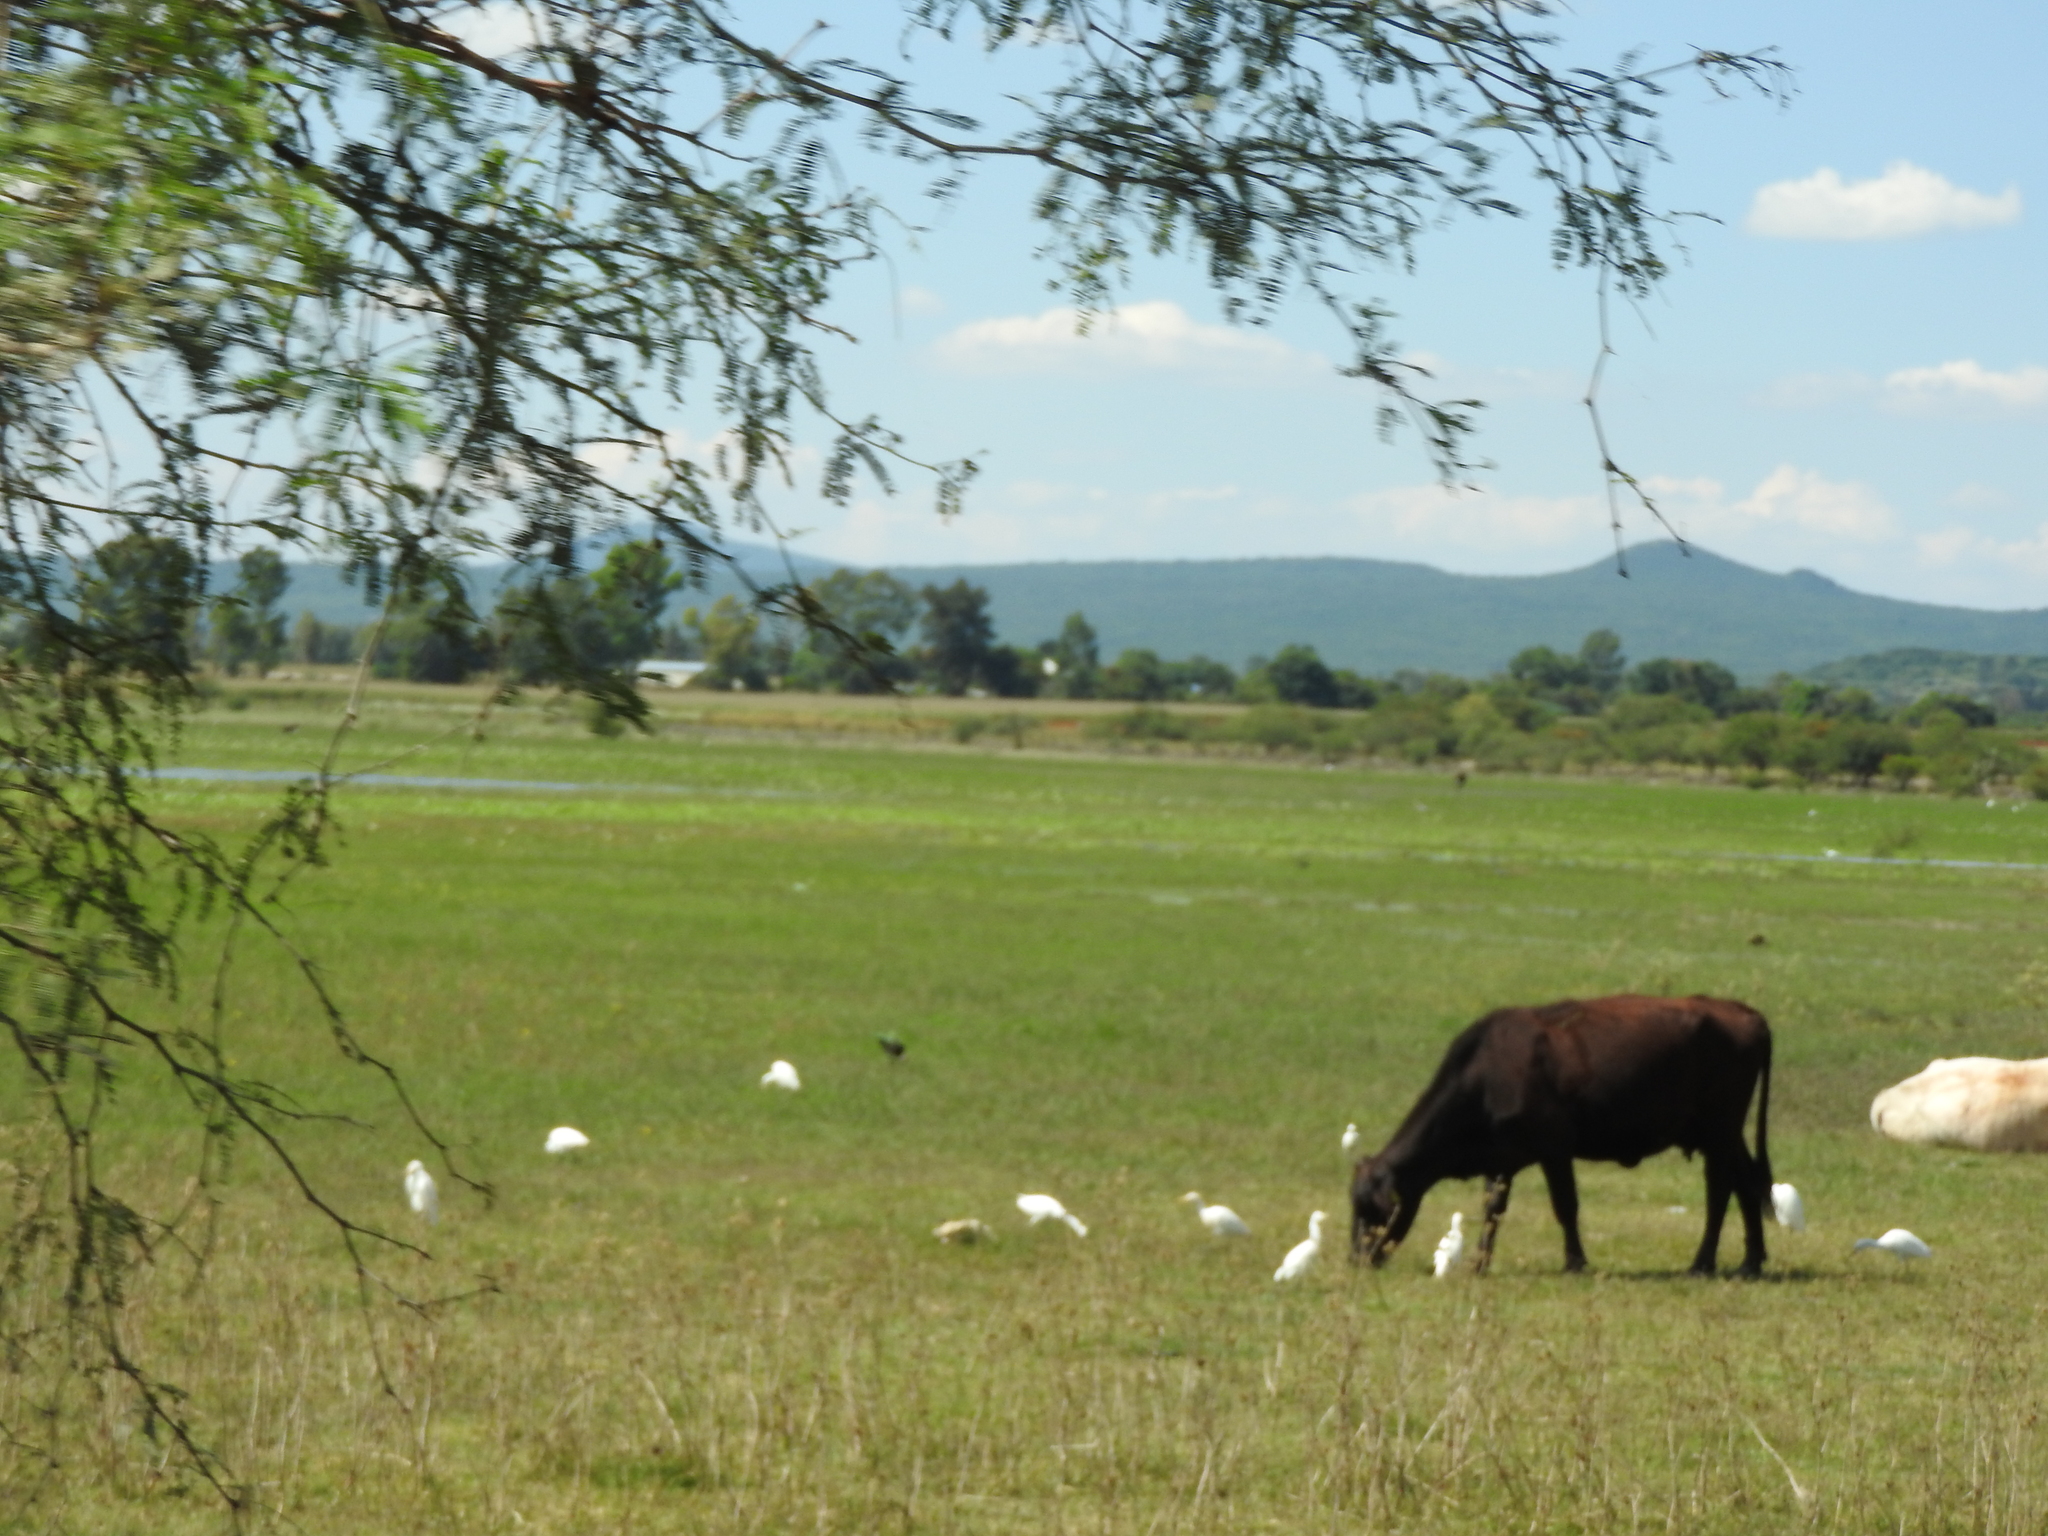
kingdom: Animalia
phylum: Chordata
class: Aves
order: Pelecaniformes
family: Ardeidae
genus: Bubulcus
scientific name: Bubulcus ibis
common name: Cattle egret
